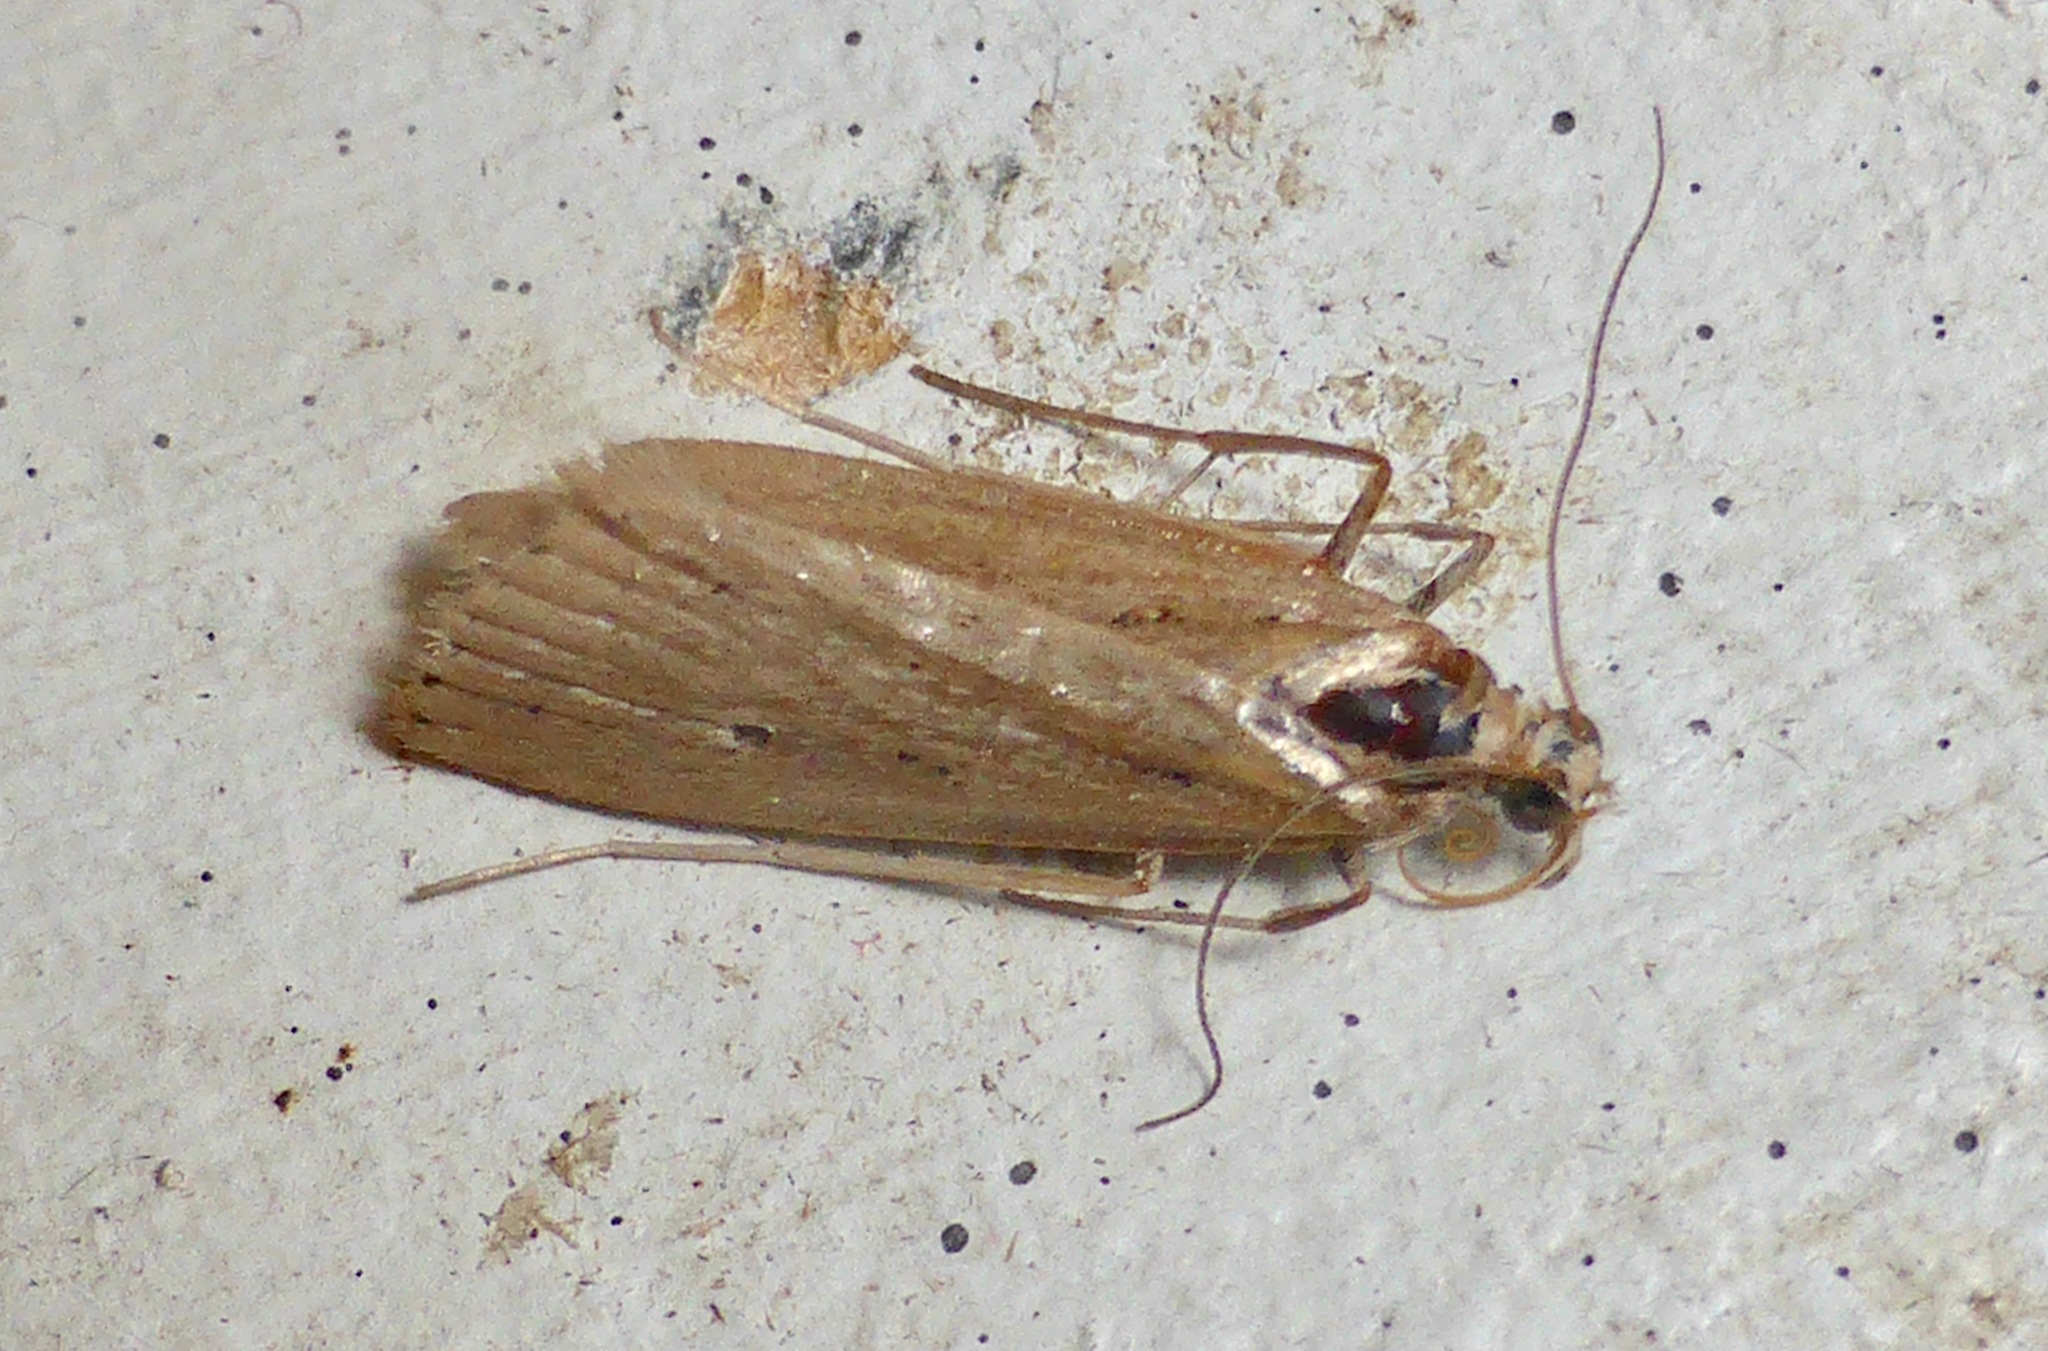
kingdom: Animalia
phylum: Arthropoda
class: Insecta
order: Lepidoptera
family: Crambidae
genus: Eudonia
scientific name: Eudonia sabulosella
